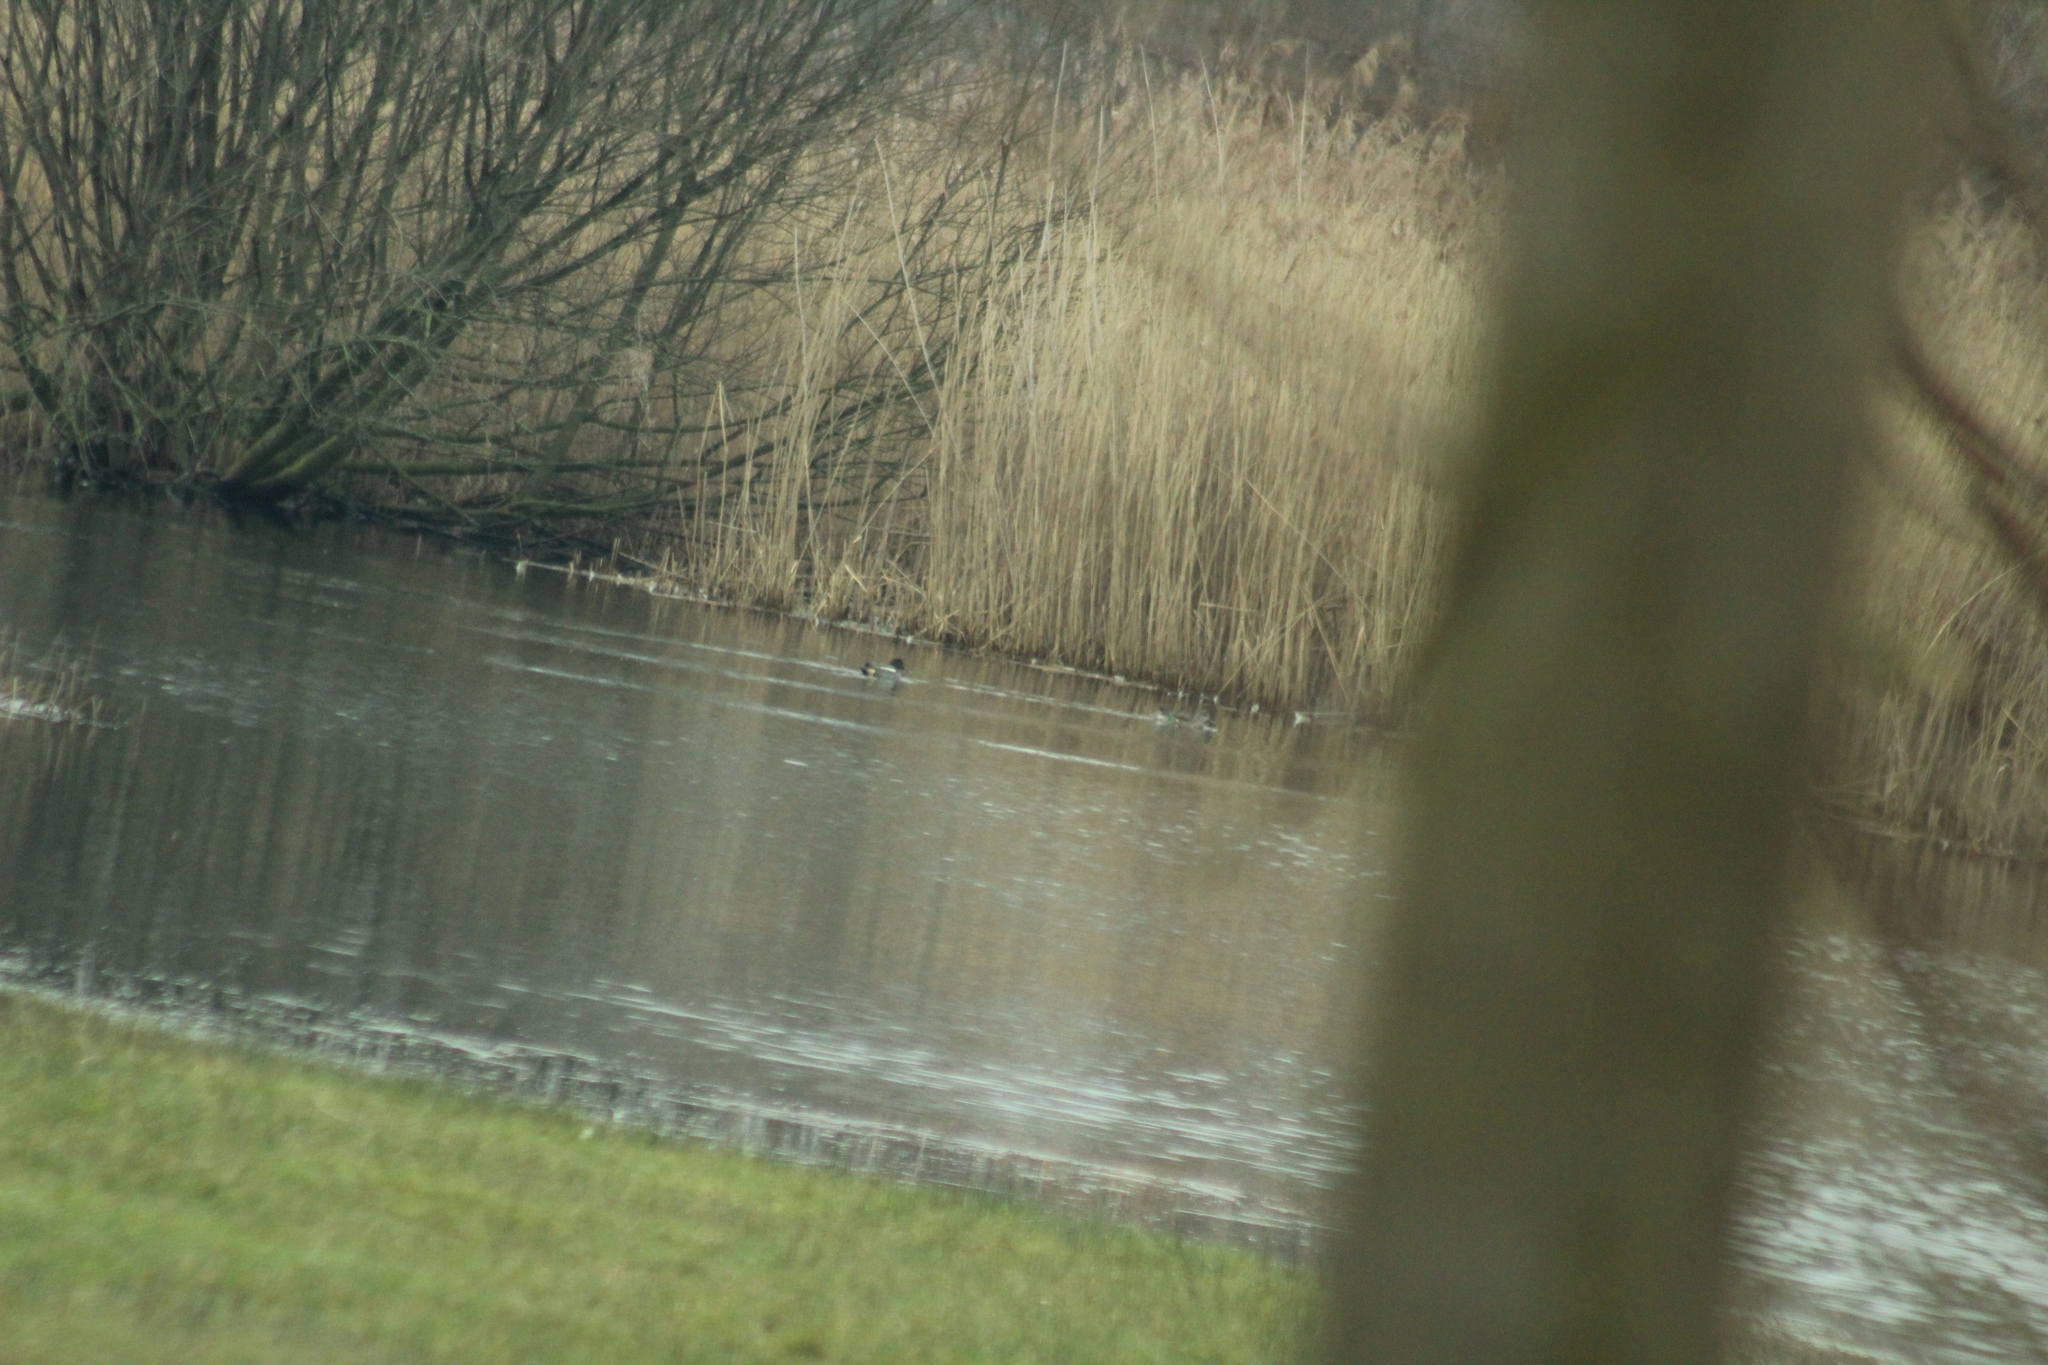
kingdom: Animalia
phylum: Chordata
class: Aves
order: Anseriformes
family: Anatidae
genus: Anas
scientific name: Anas crecca
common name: Eurasian teal
